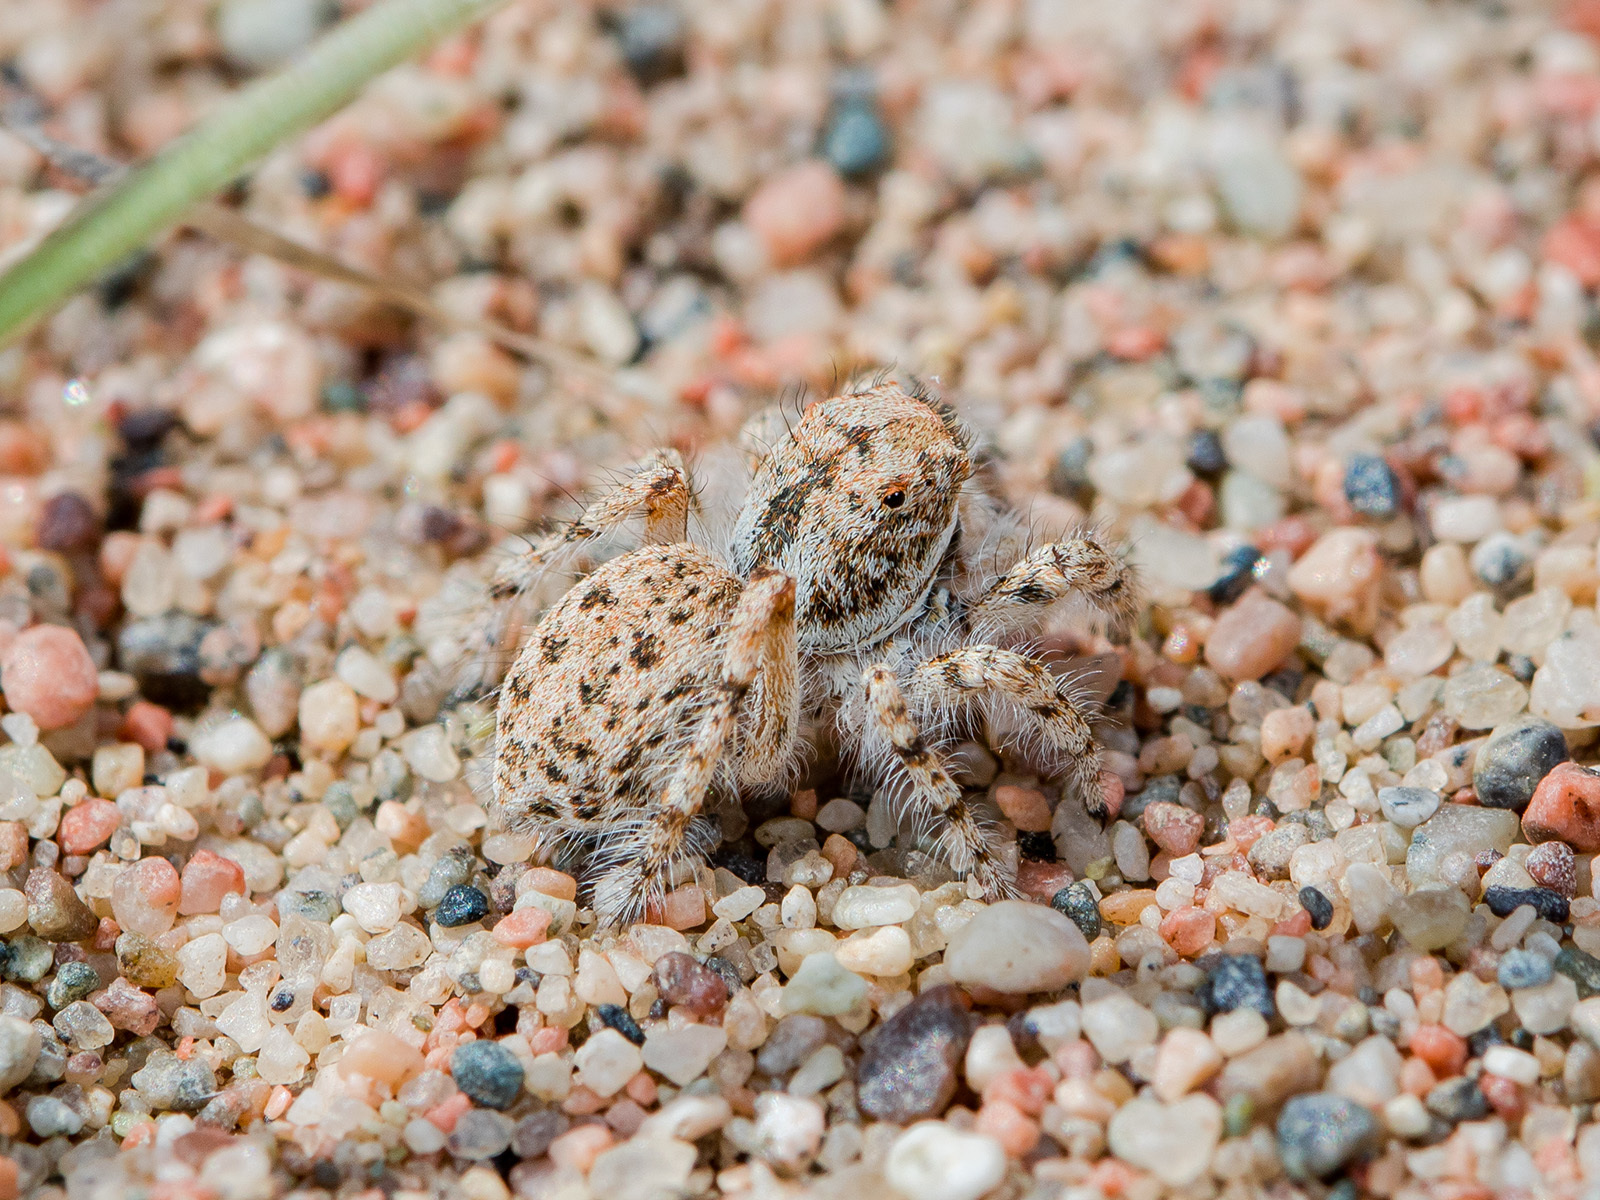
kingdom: Animalia
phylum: Arthropoda
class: Arachnida
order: Araneae
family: Salticidae
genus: Yllenus
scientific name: Yllenus uiguricus
